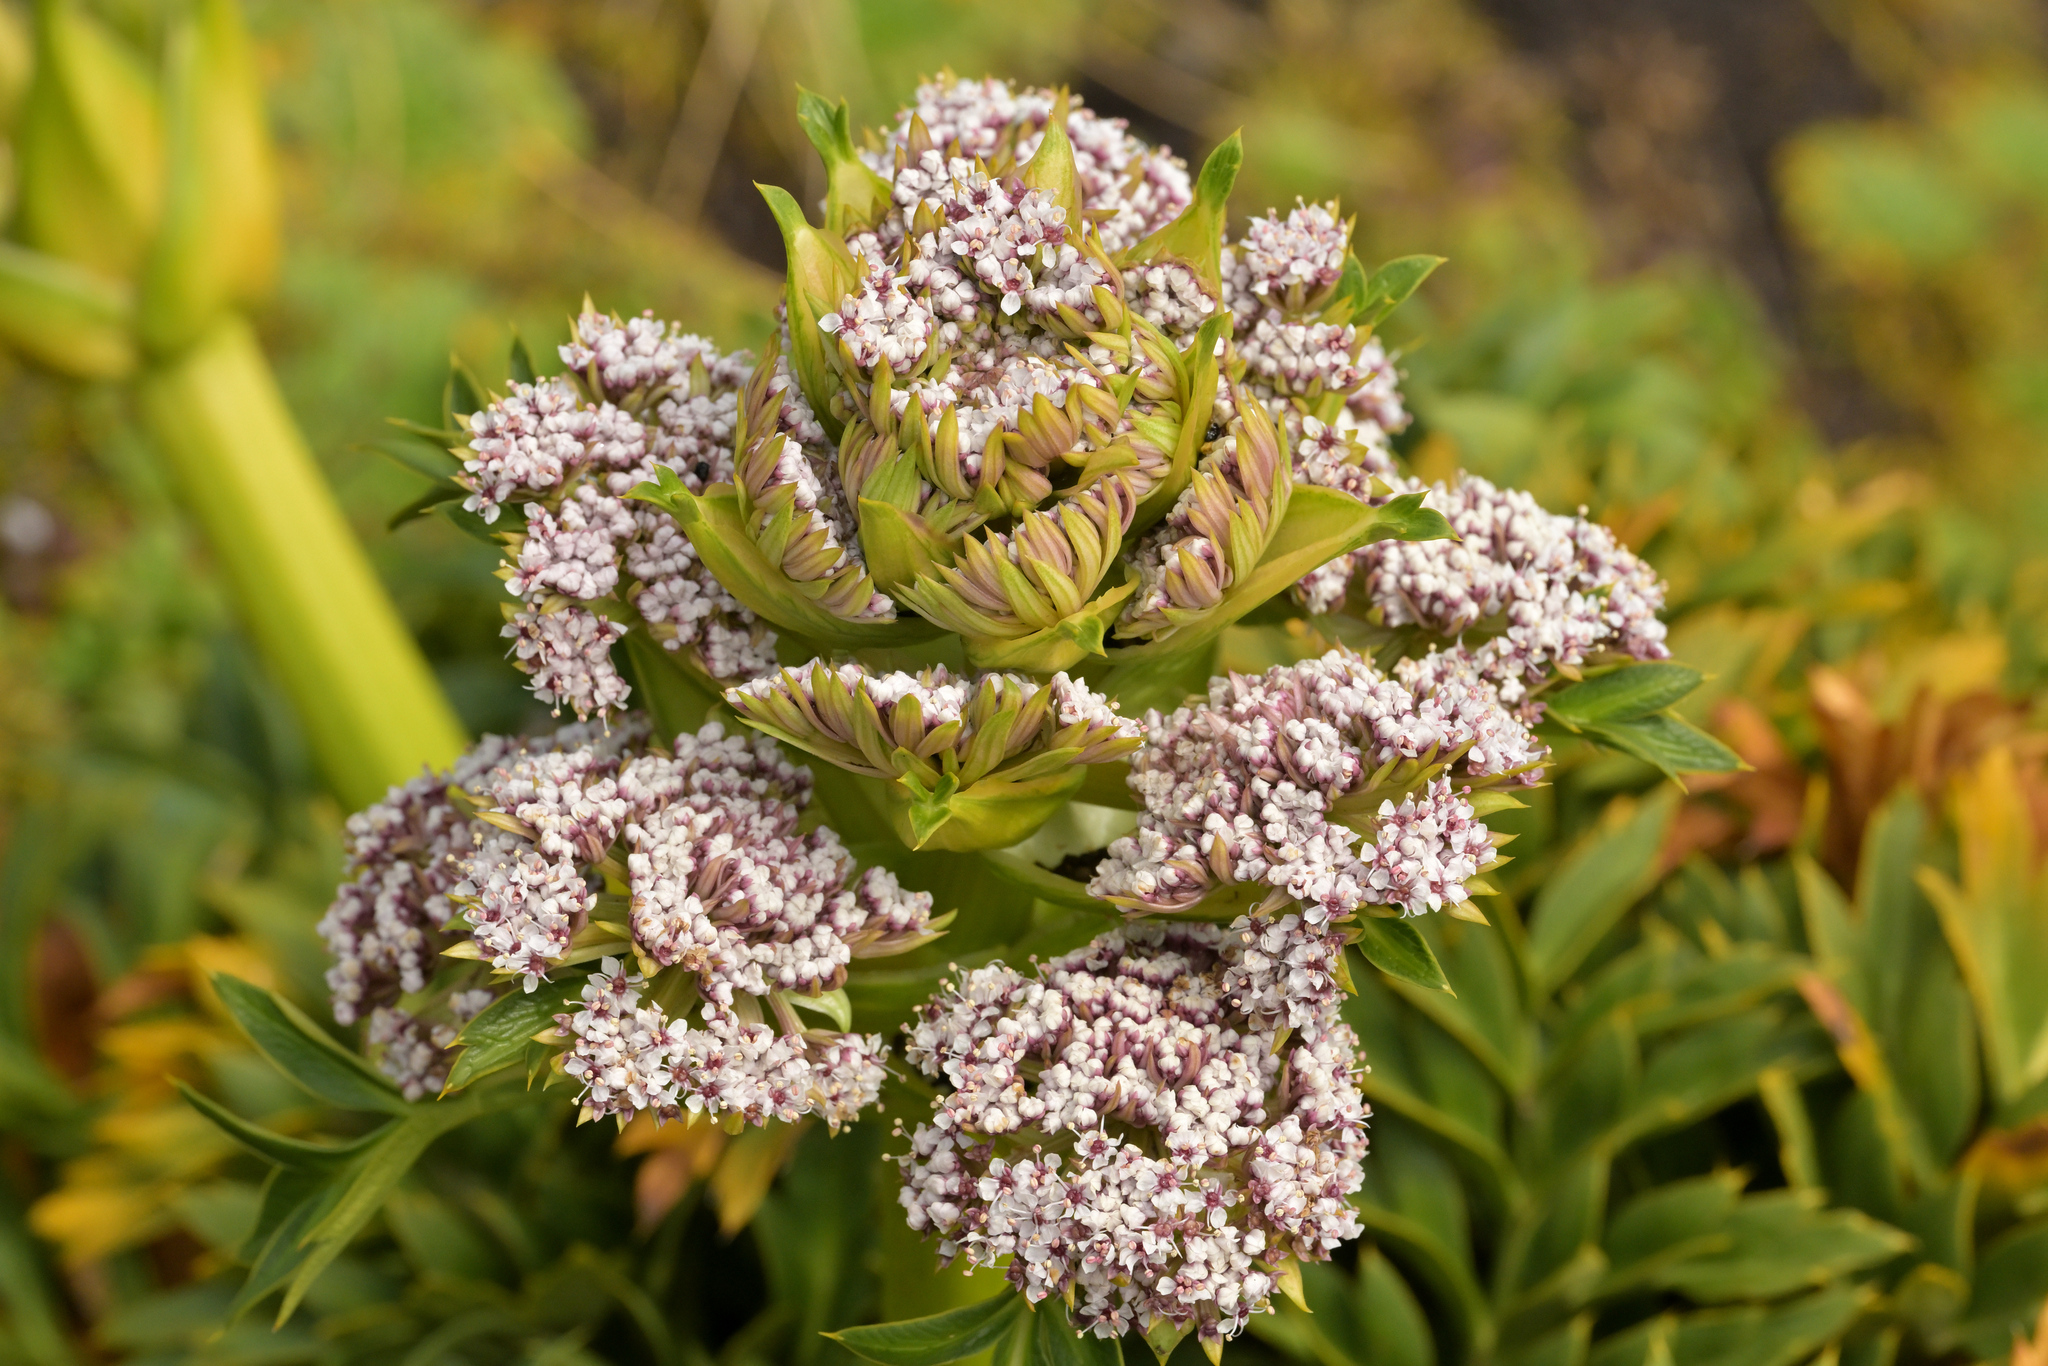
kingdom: Plantae
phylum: Tracheophyta
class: Magnoliopsida
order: Apiales
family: Apiaceae
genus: Anisotome
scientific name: Anisotome latifolia
